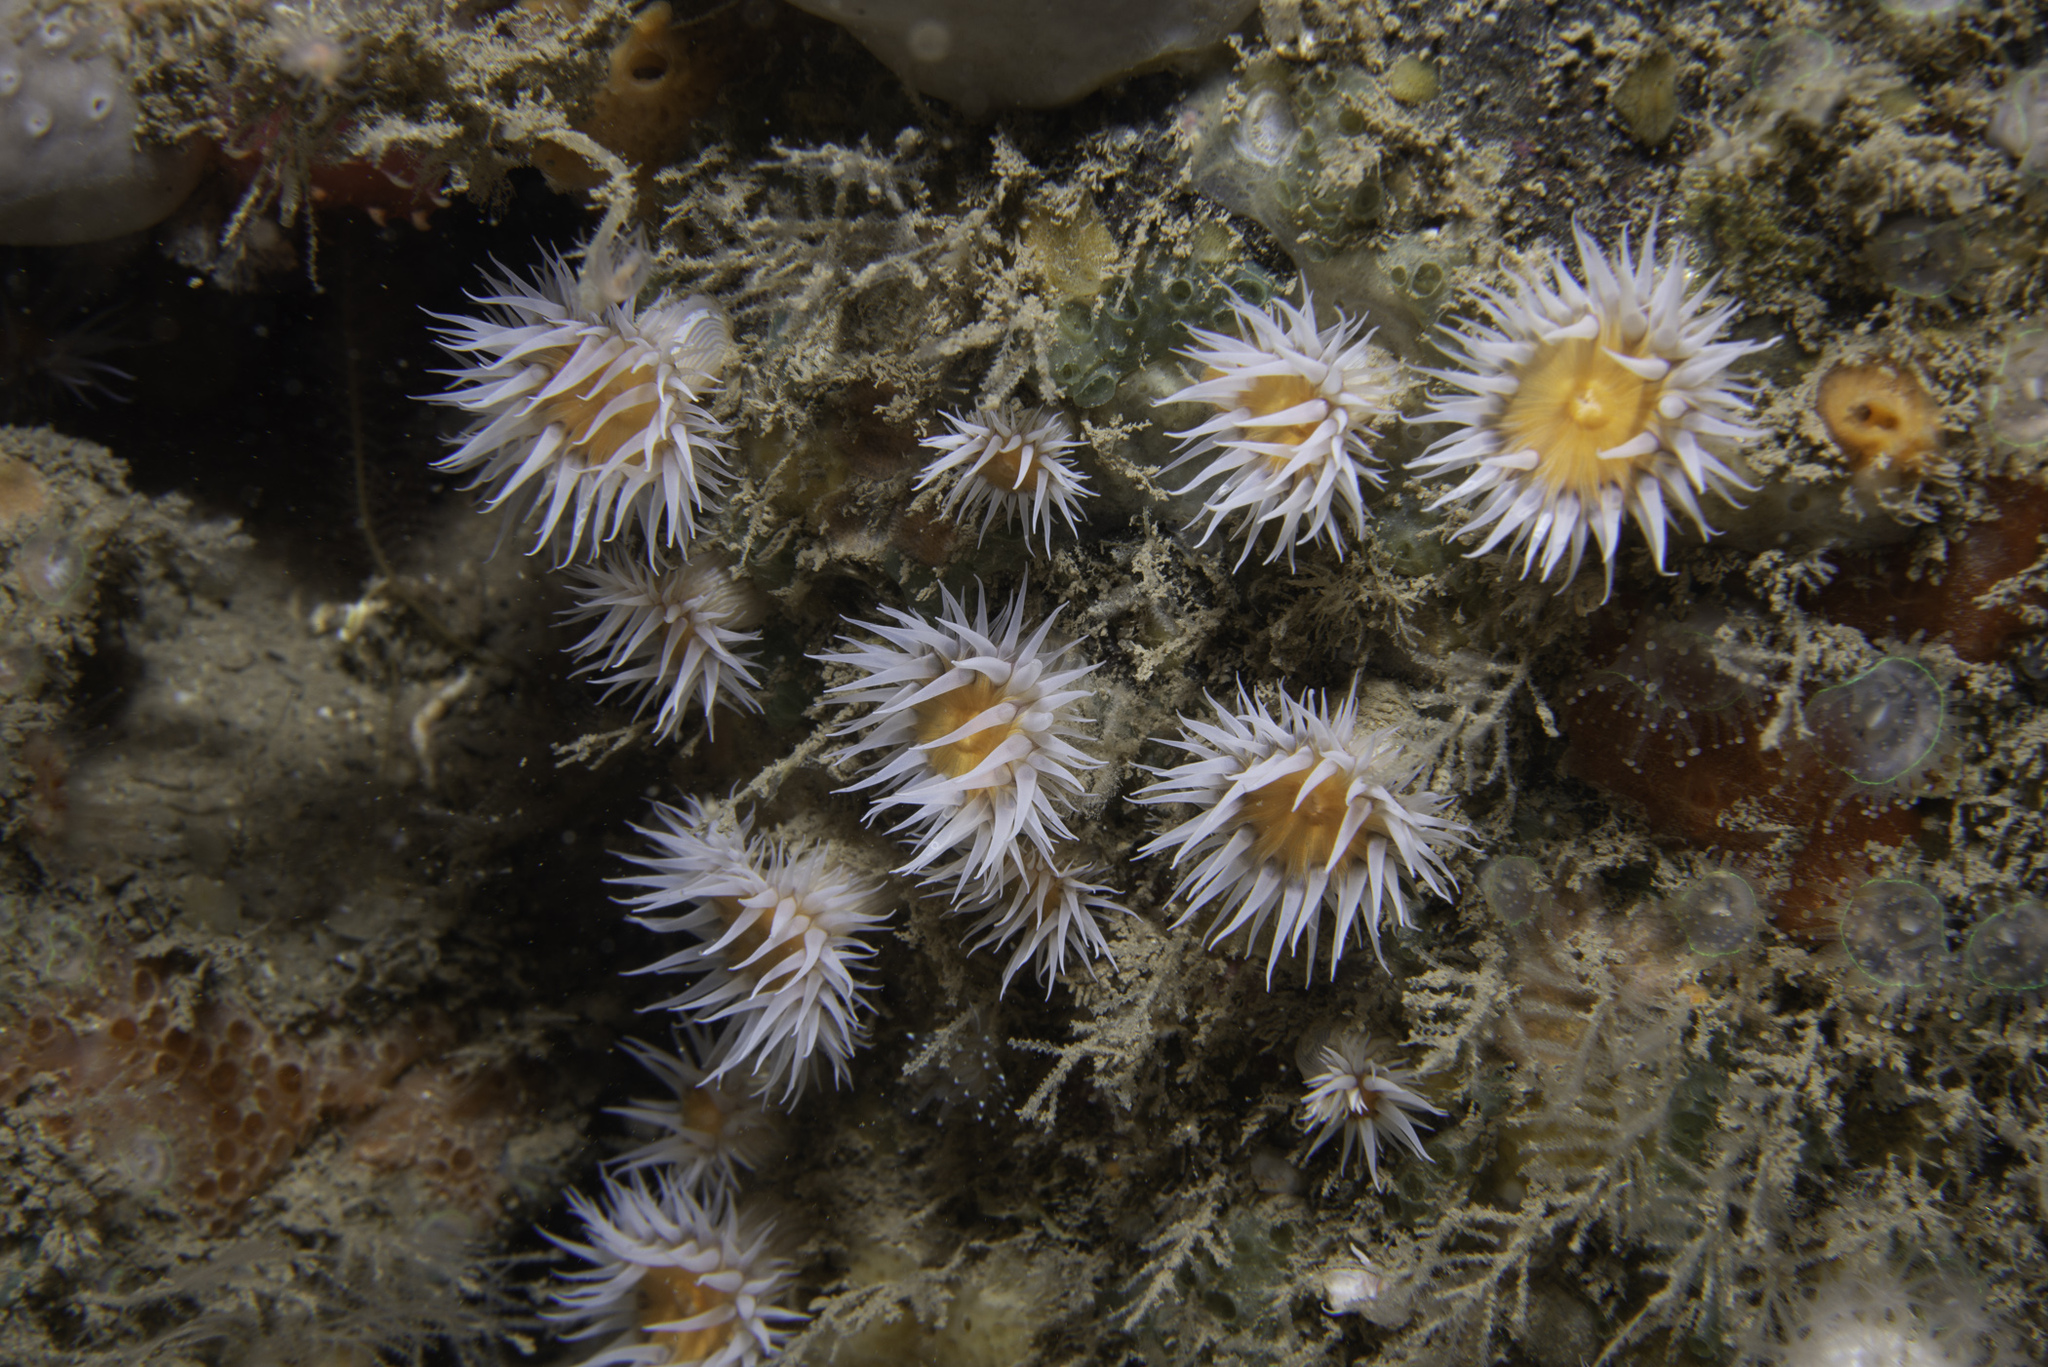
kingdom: Animalia
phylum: Cnidaria
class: Anthozoa
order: Actiniaria
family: Sagartiidae
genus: Actinothoe
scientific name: Actinothoe sphyrodeta
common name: Sandalled anemone
